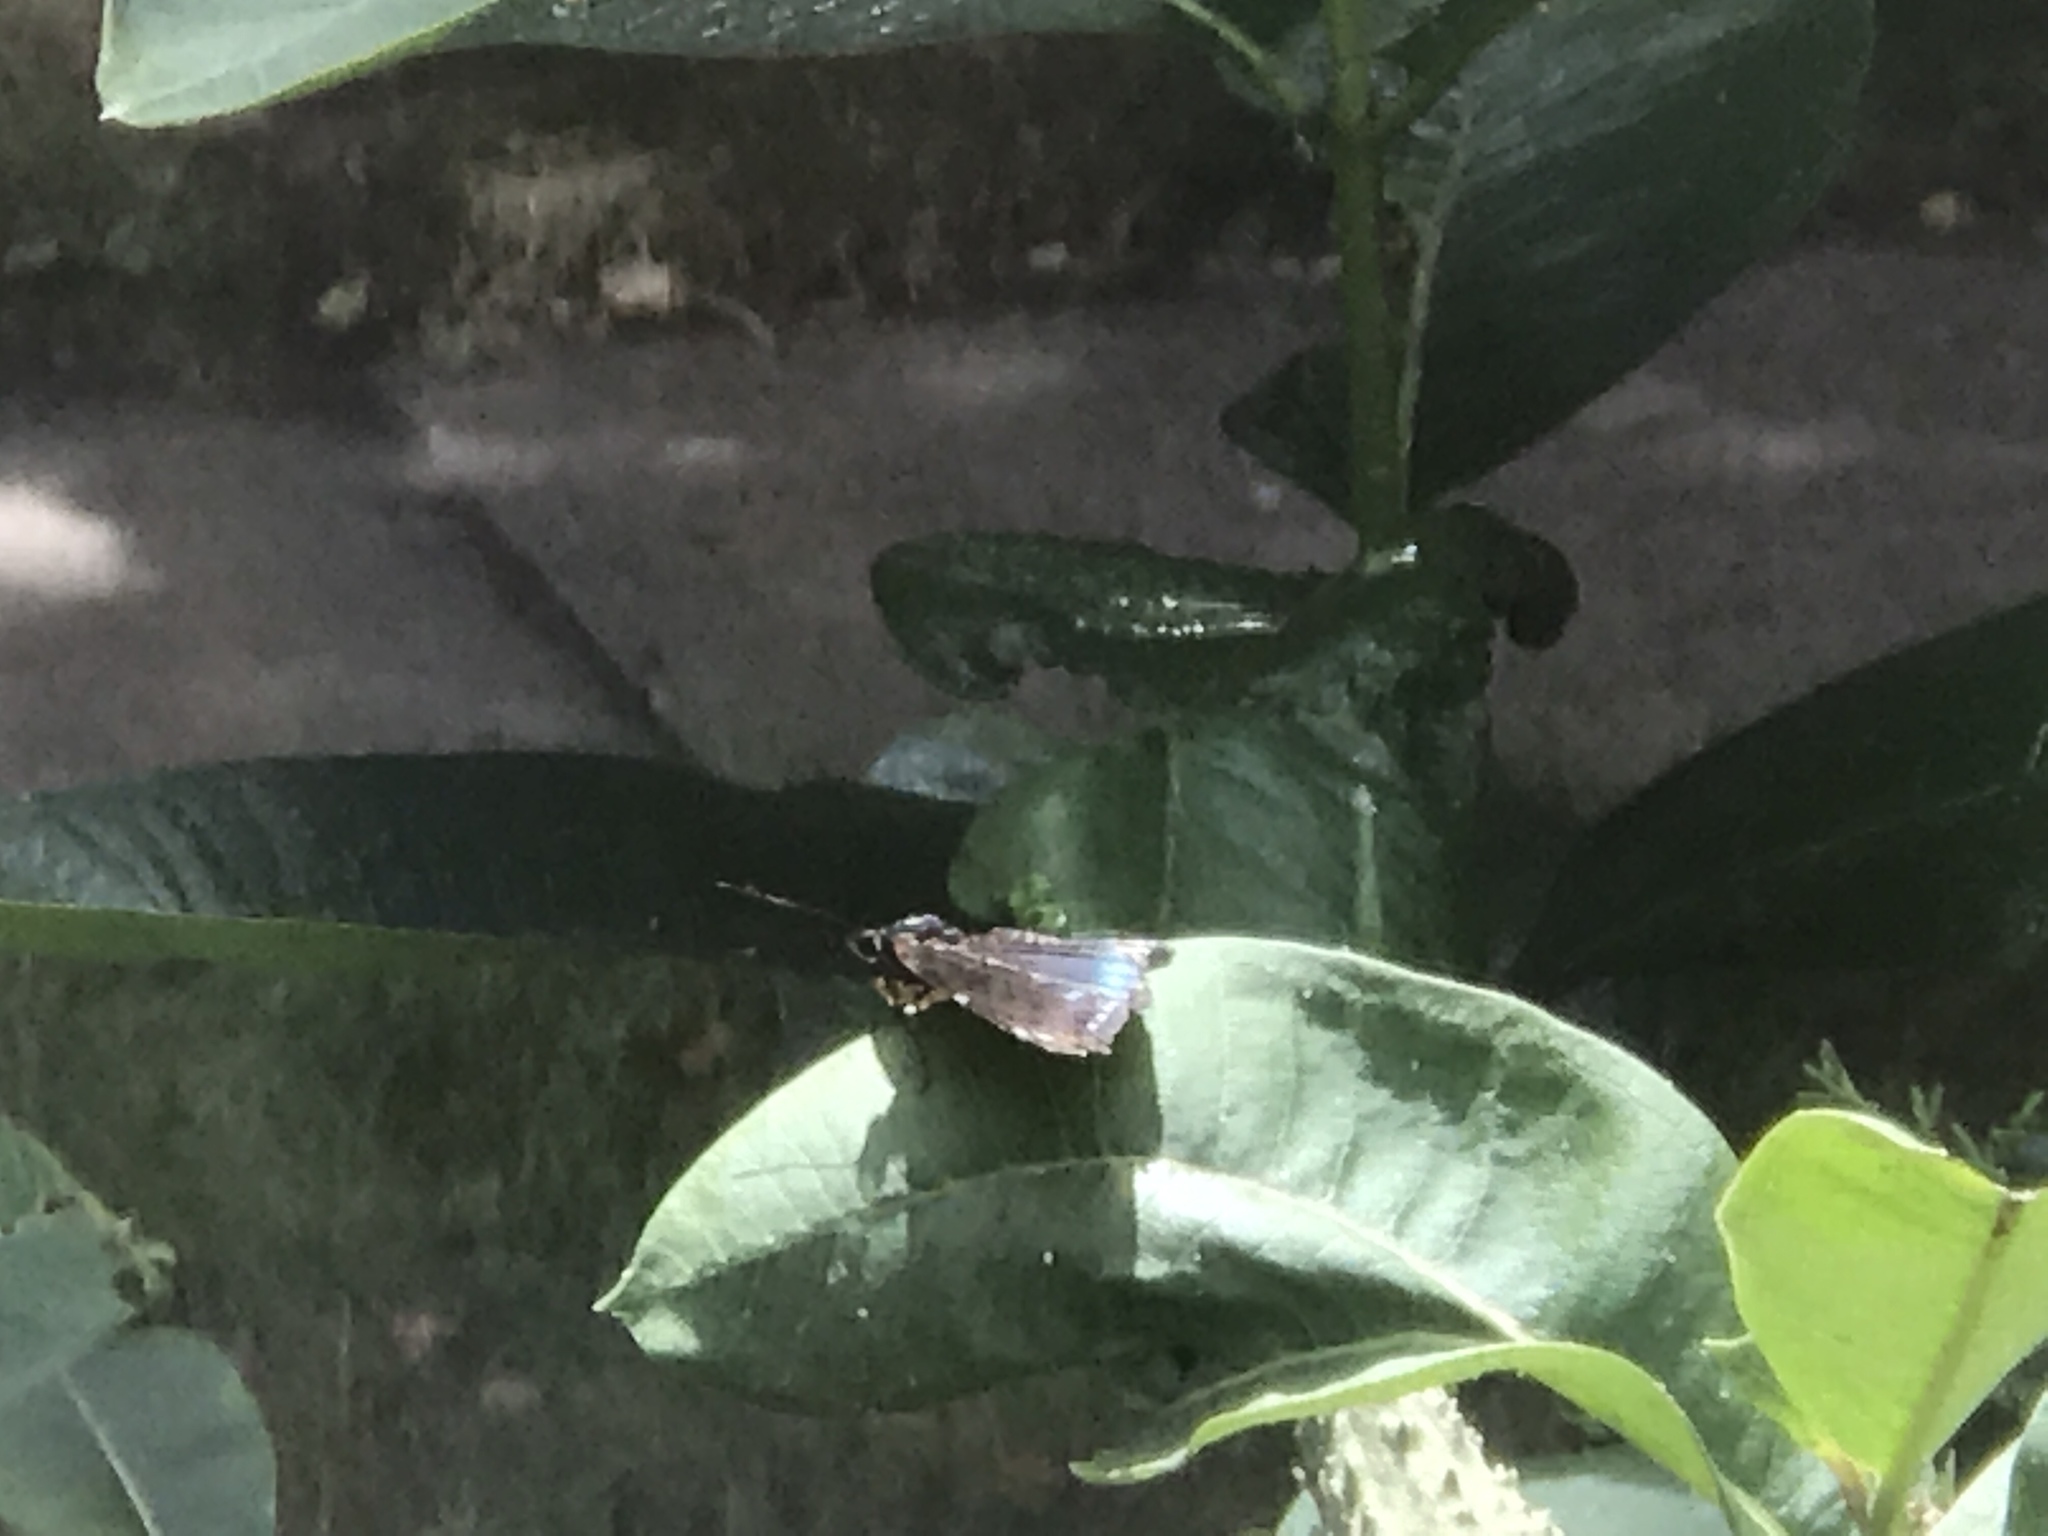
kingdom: Animalia
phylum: Arthropoda
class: Insecta
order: Lepidoptera
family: Nymphalidae
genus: Limenitis
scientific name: Limenitis astyanax
